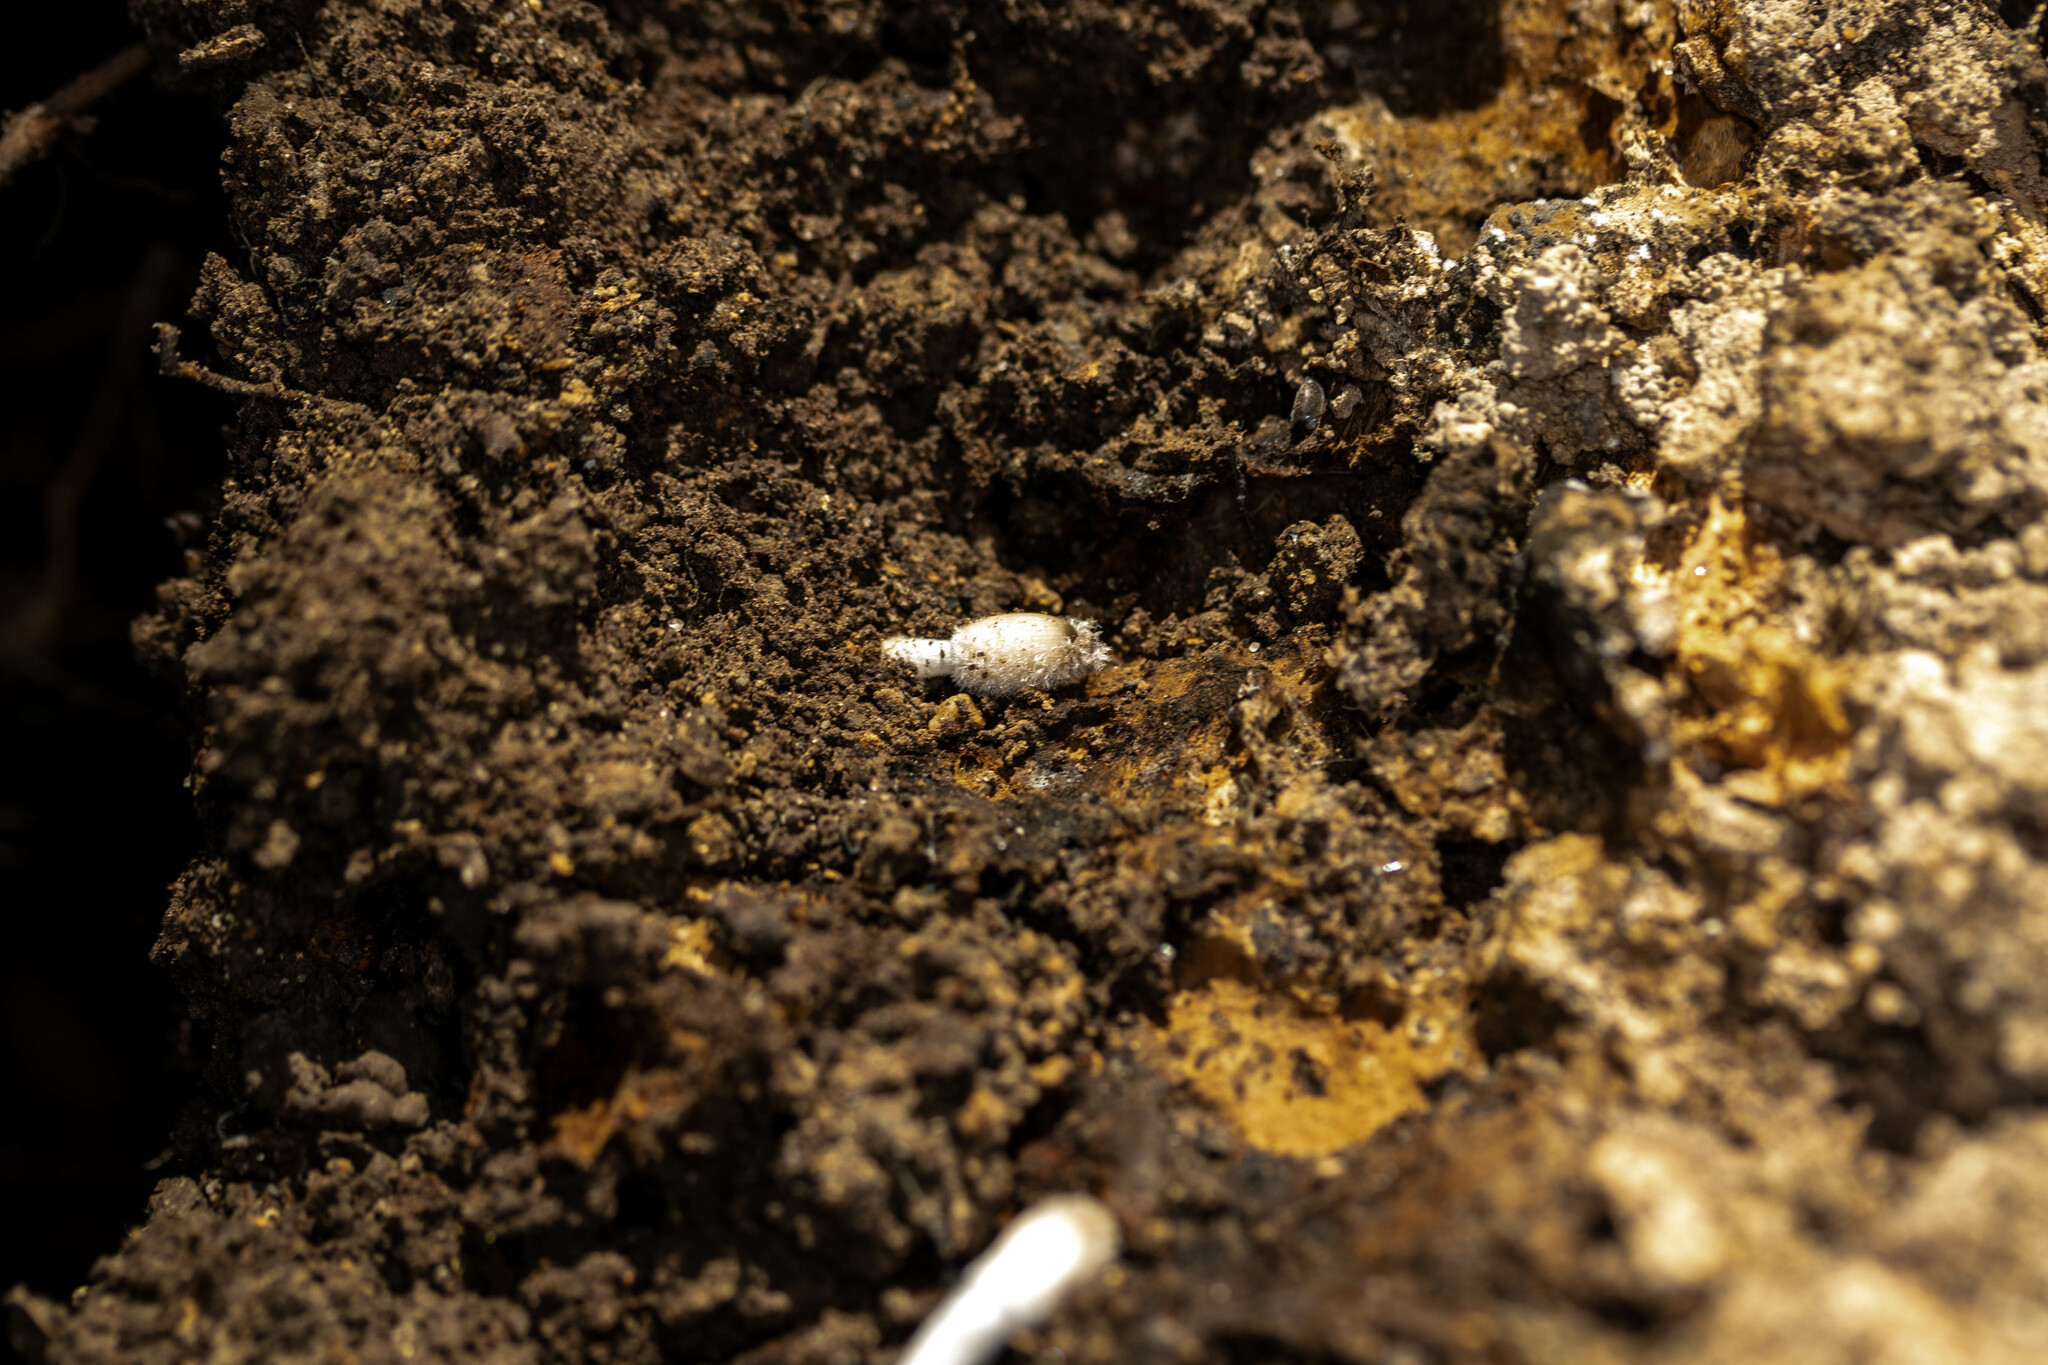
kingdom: Fungi
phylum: Basidiomycota
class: Agaricomycetes
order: Agaricales
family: Psathyrellaceae
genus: Coprinopsis
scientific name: Coprinopsis lagopus
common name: Hare'sfoot inkcap
